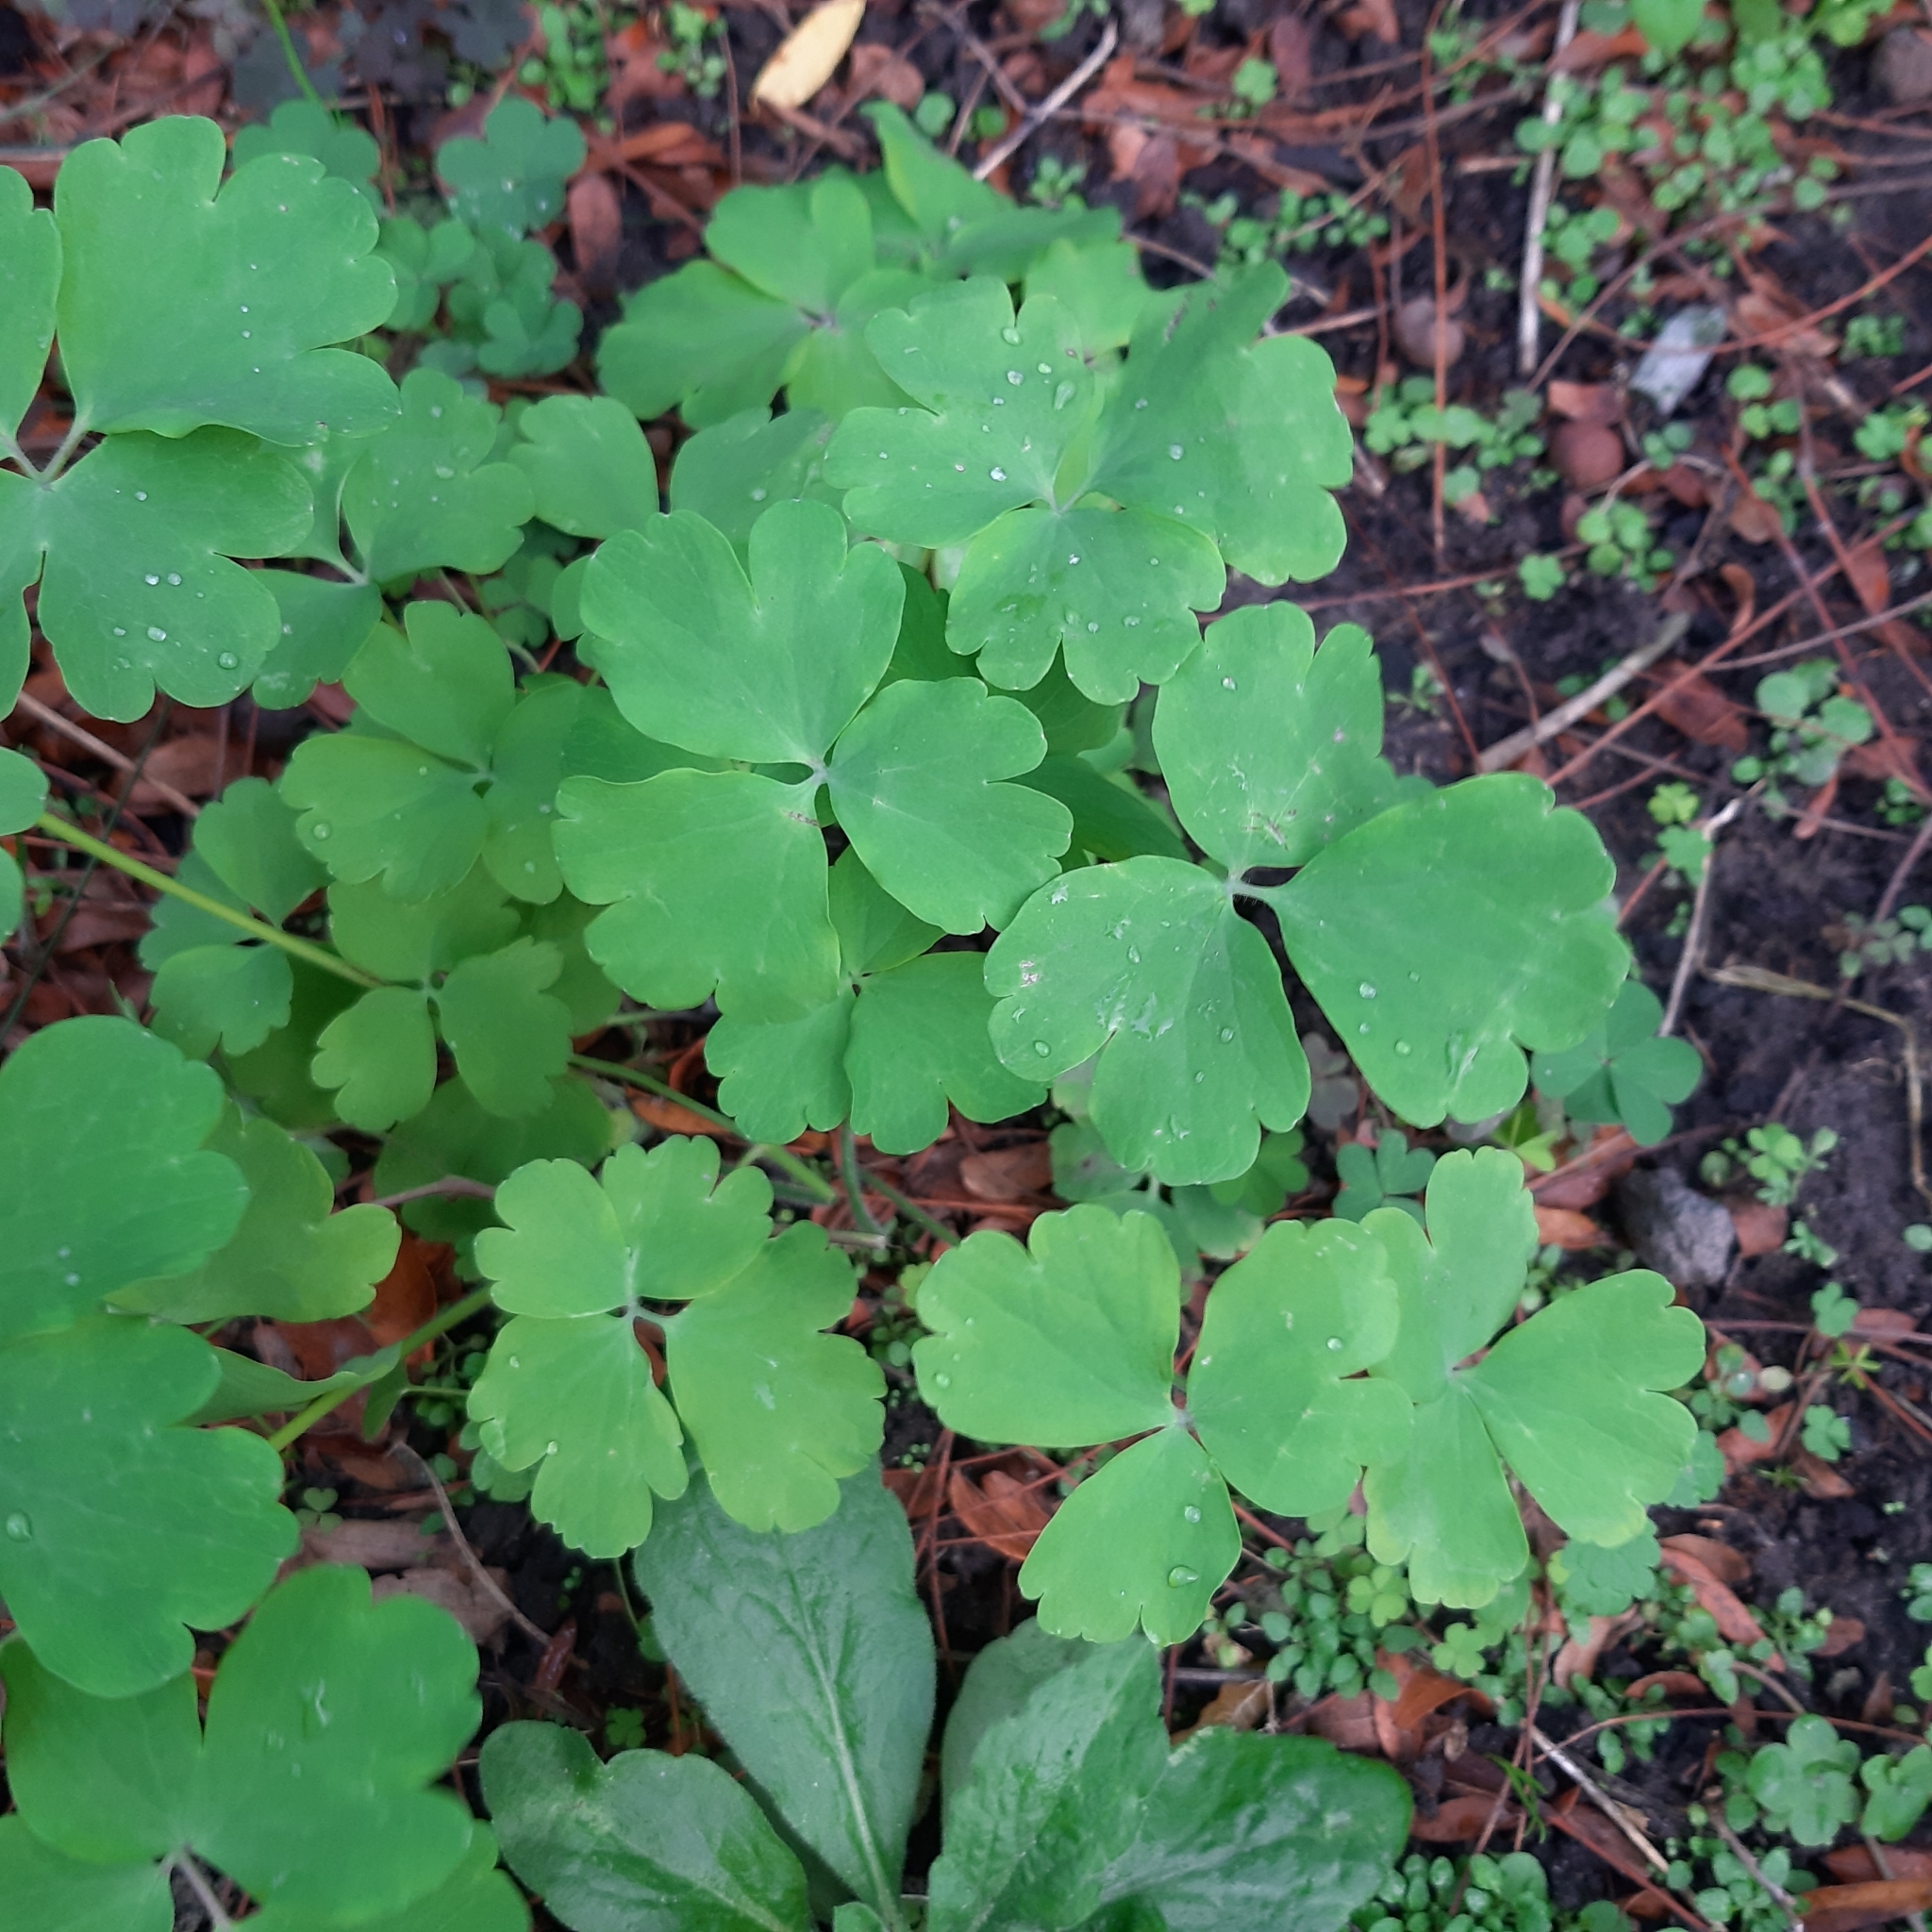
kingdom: Plantae
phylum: Tracheophyta
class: Magnoliopsida
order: Ranunculales
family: Ranunculaceae
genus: Aquilegia
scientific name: Aquilegia vulgaris
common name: Columbine
